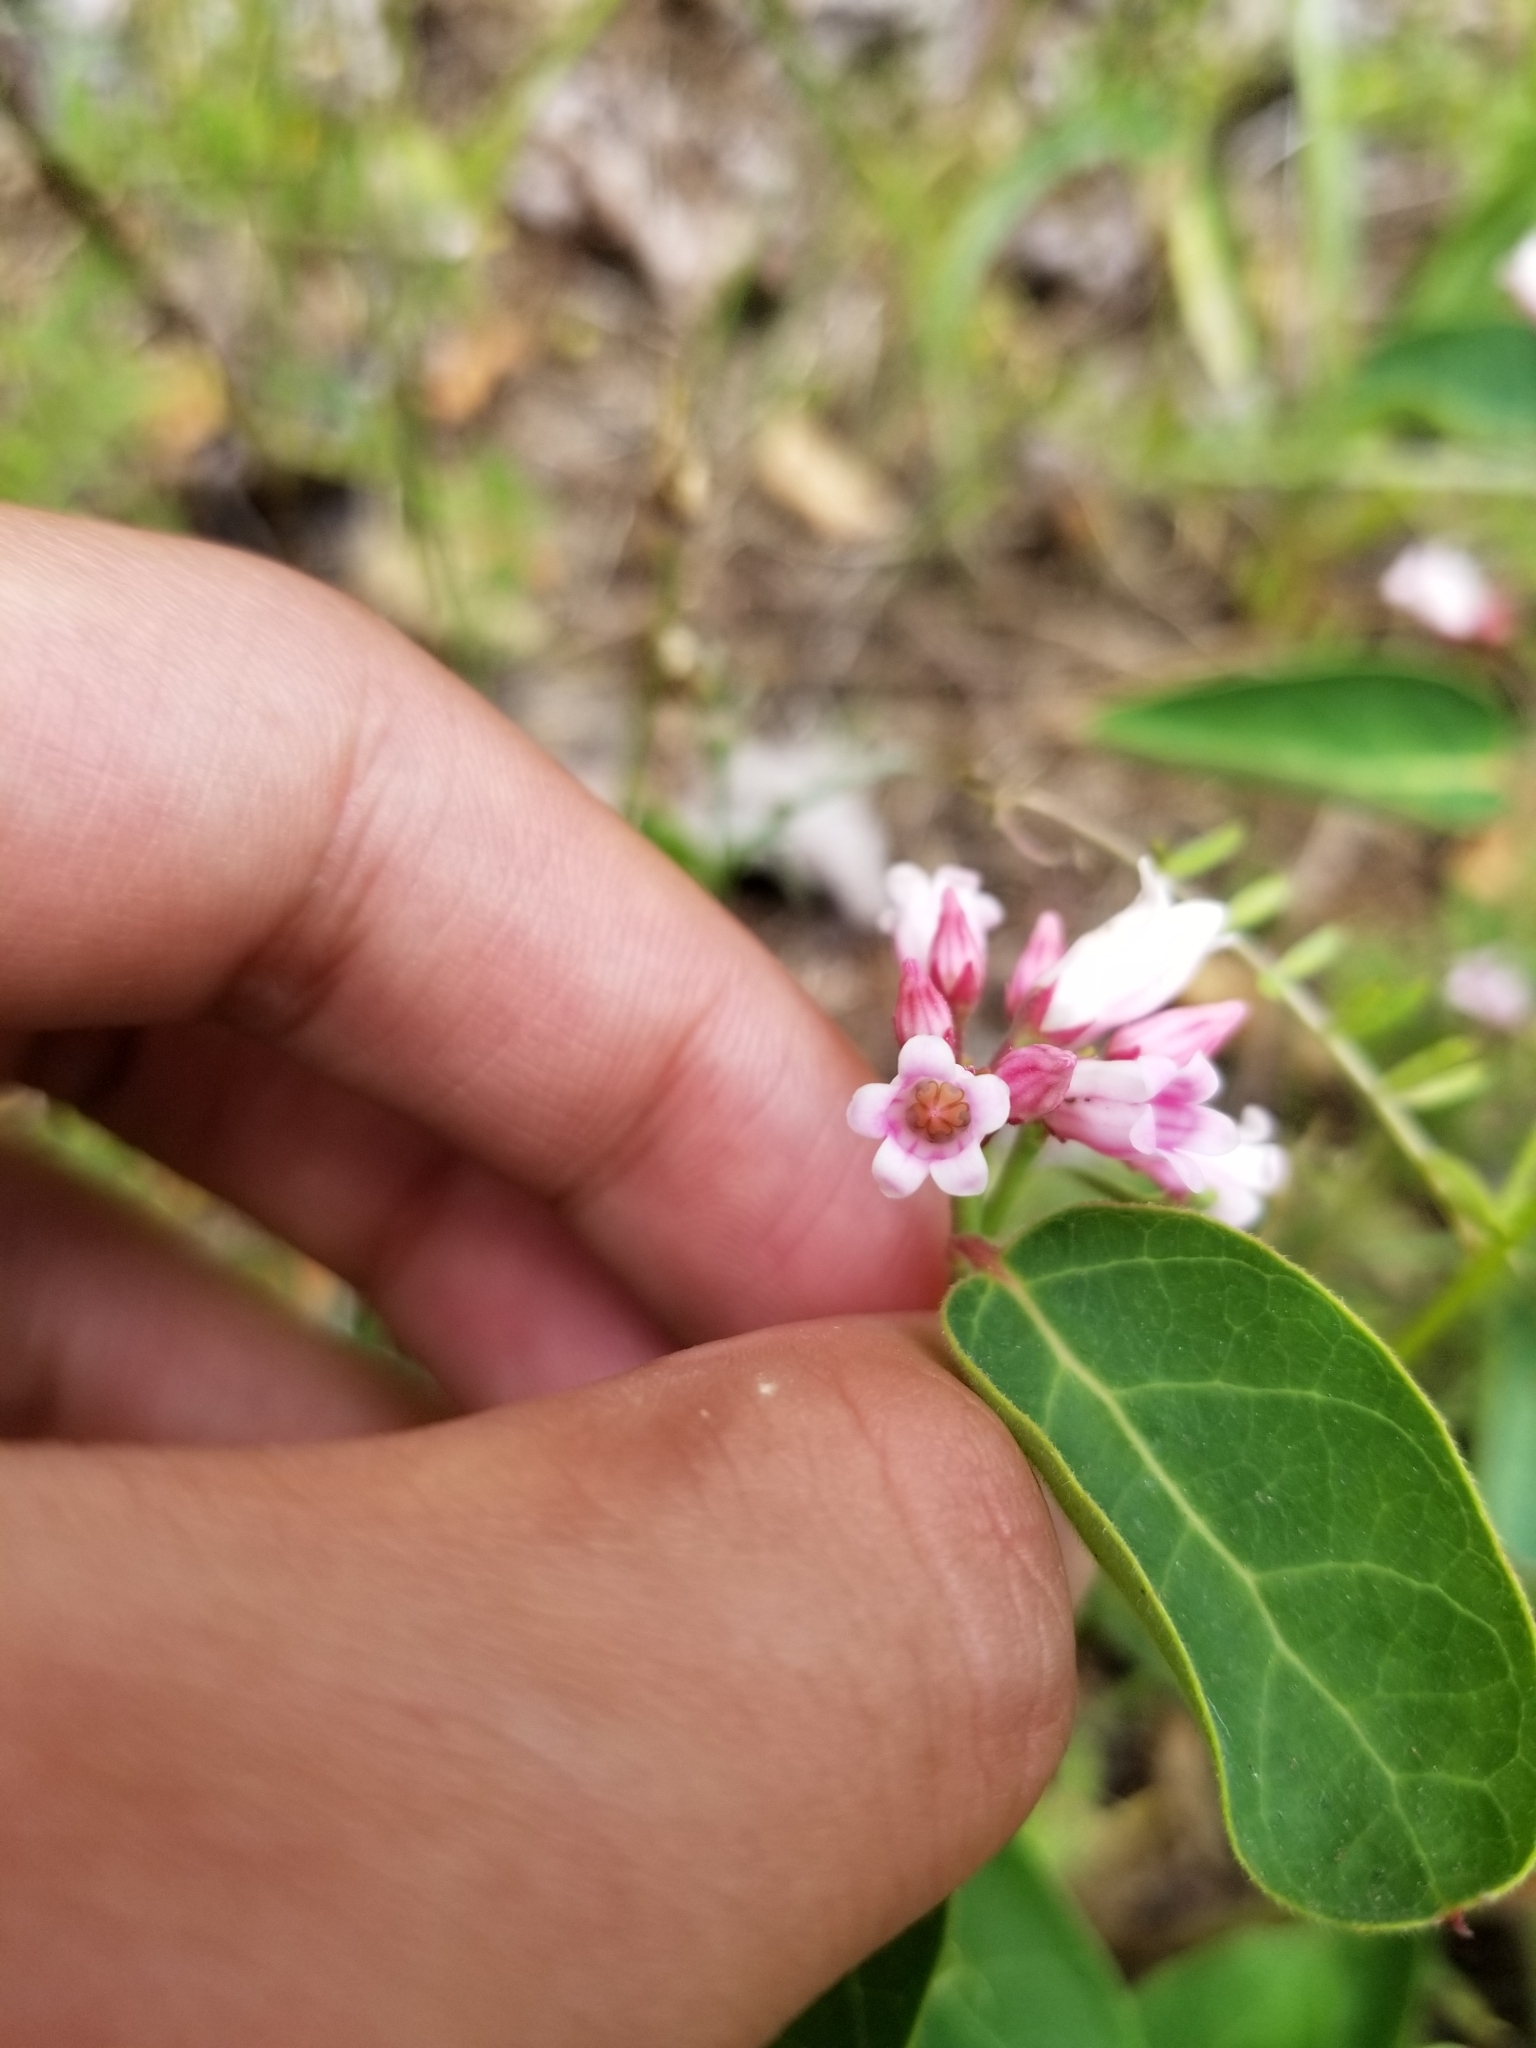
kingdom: Plantae
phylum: Tracheophyta
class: Magnoliopsida
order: Gentianales
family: Apocynaceae
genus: Apocynum
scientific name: Apocynum androsaemifolium
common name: Spreading dogbane
